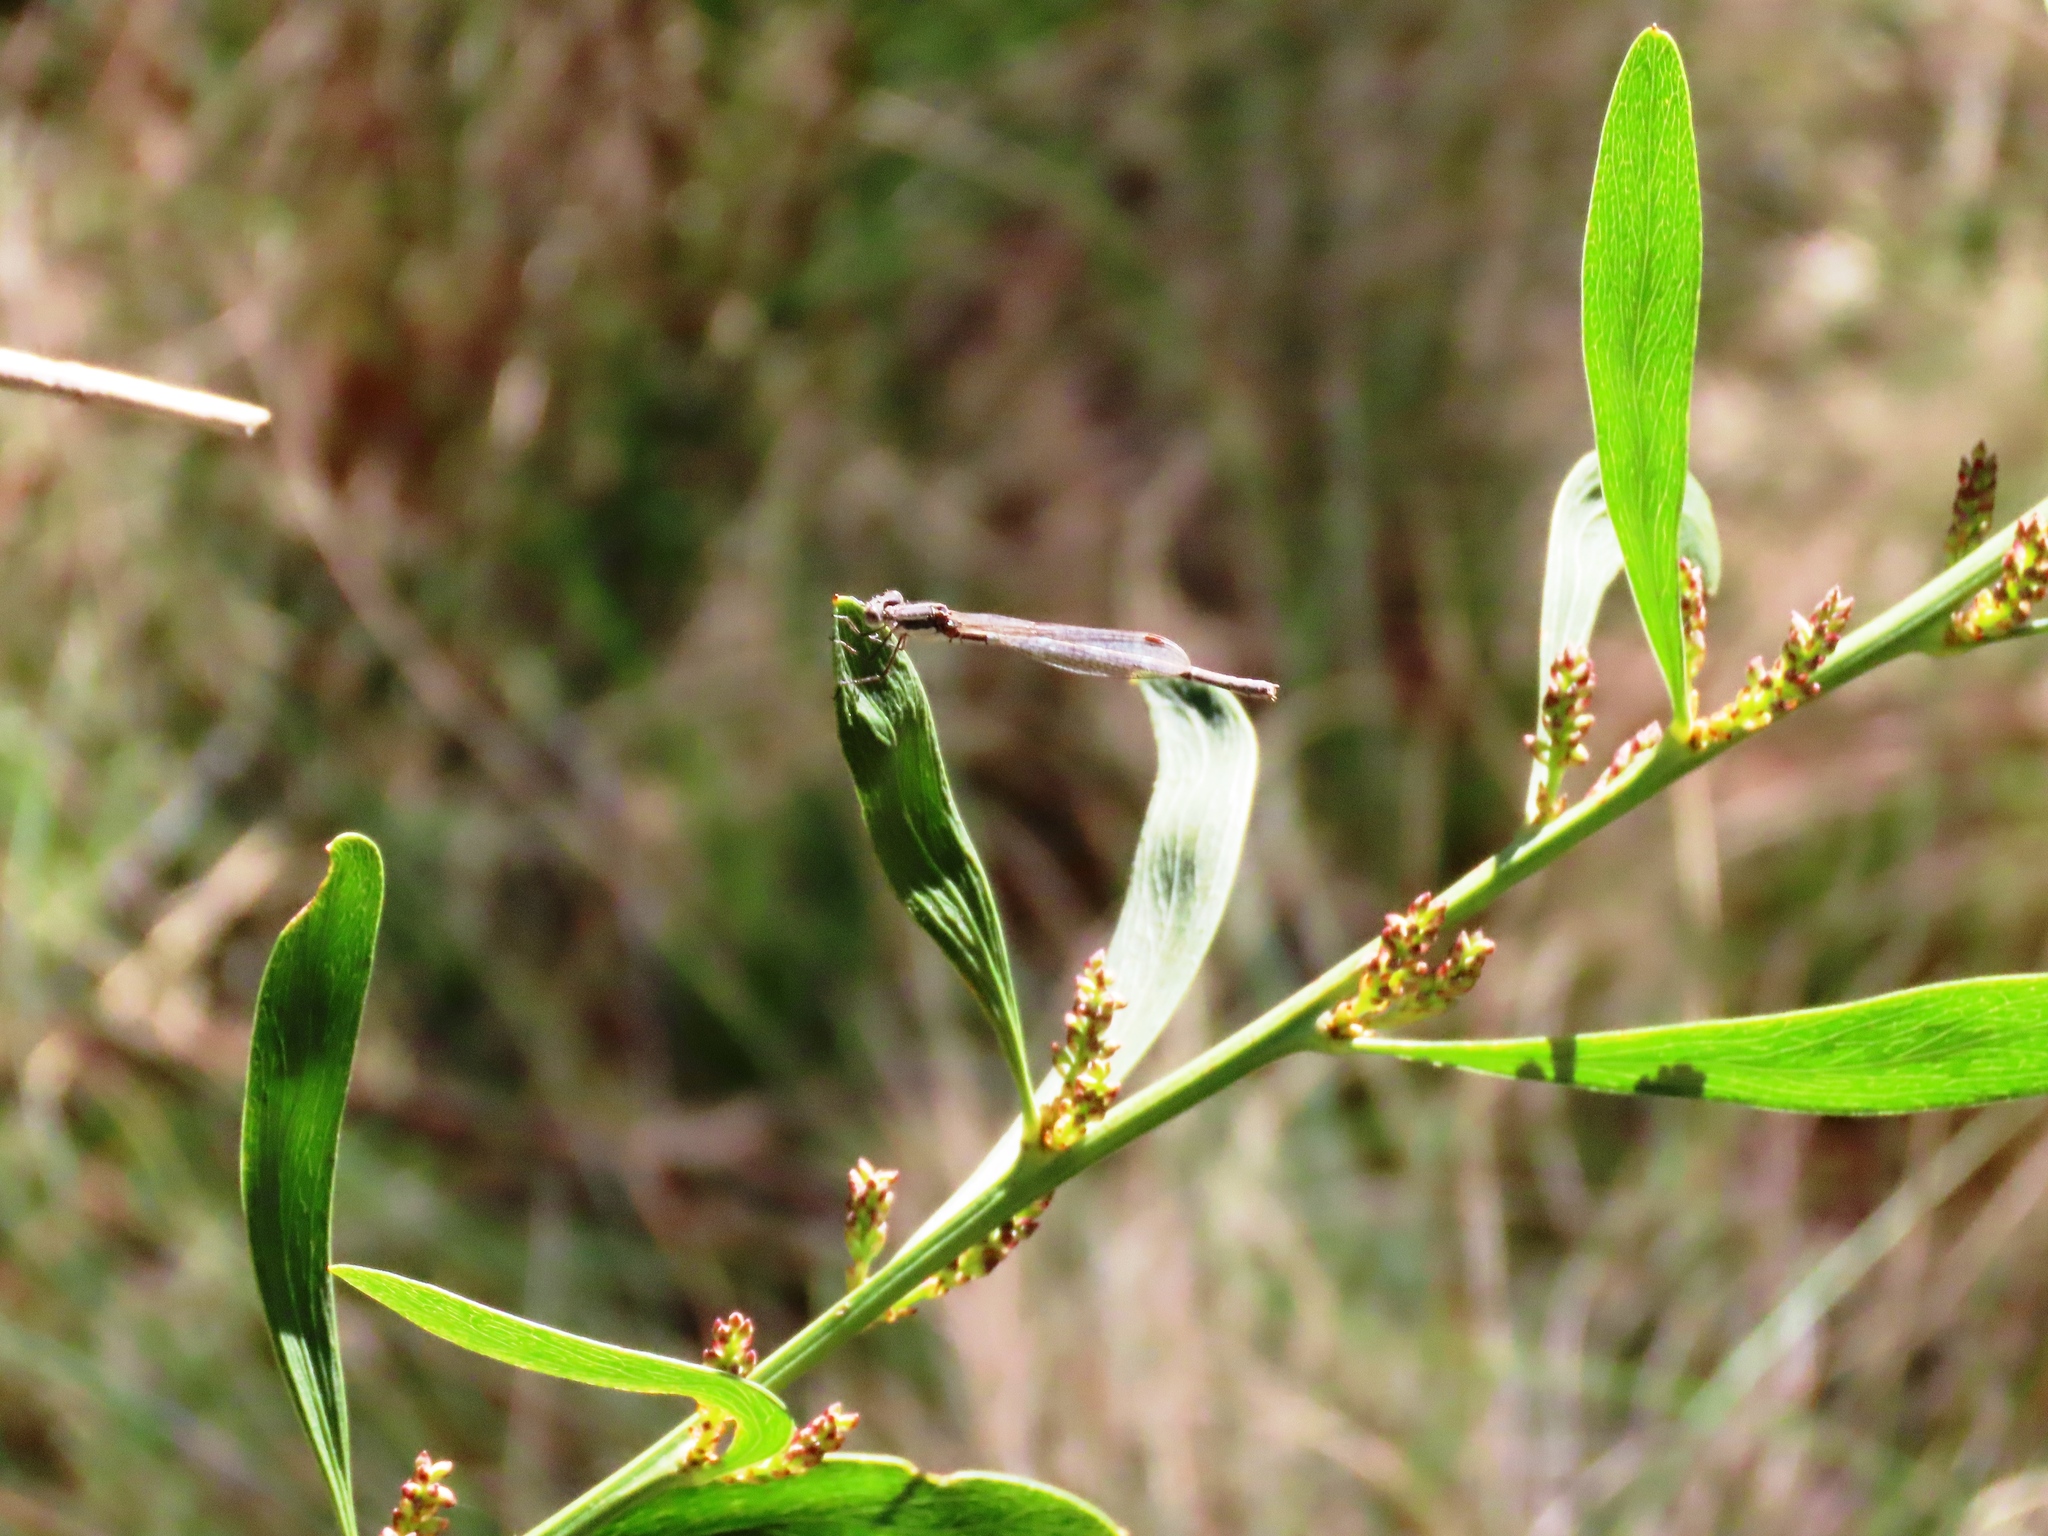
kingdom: Plantae
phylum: Tracheophyta
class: Magnoliopsida
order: Fabales
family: Fabaceae
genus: Daviesia
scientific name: Daviesia leptophylla
